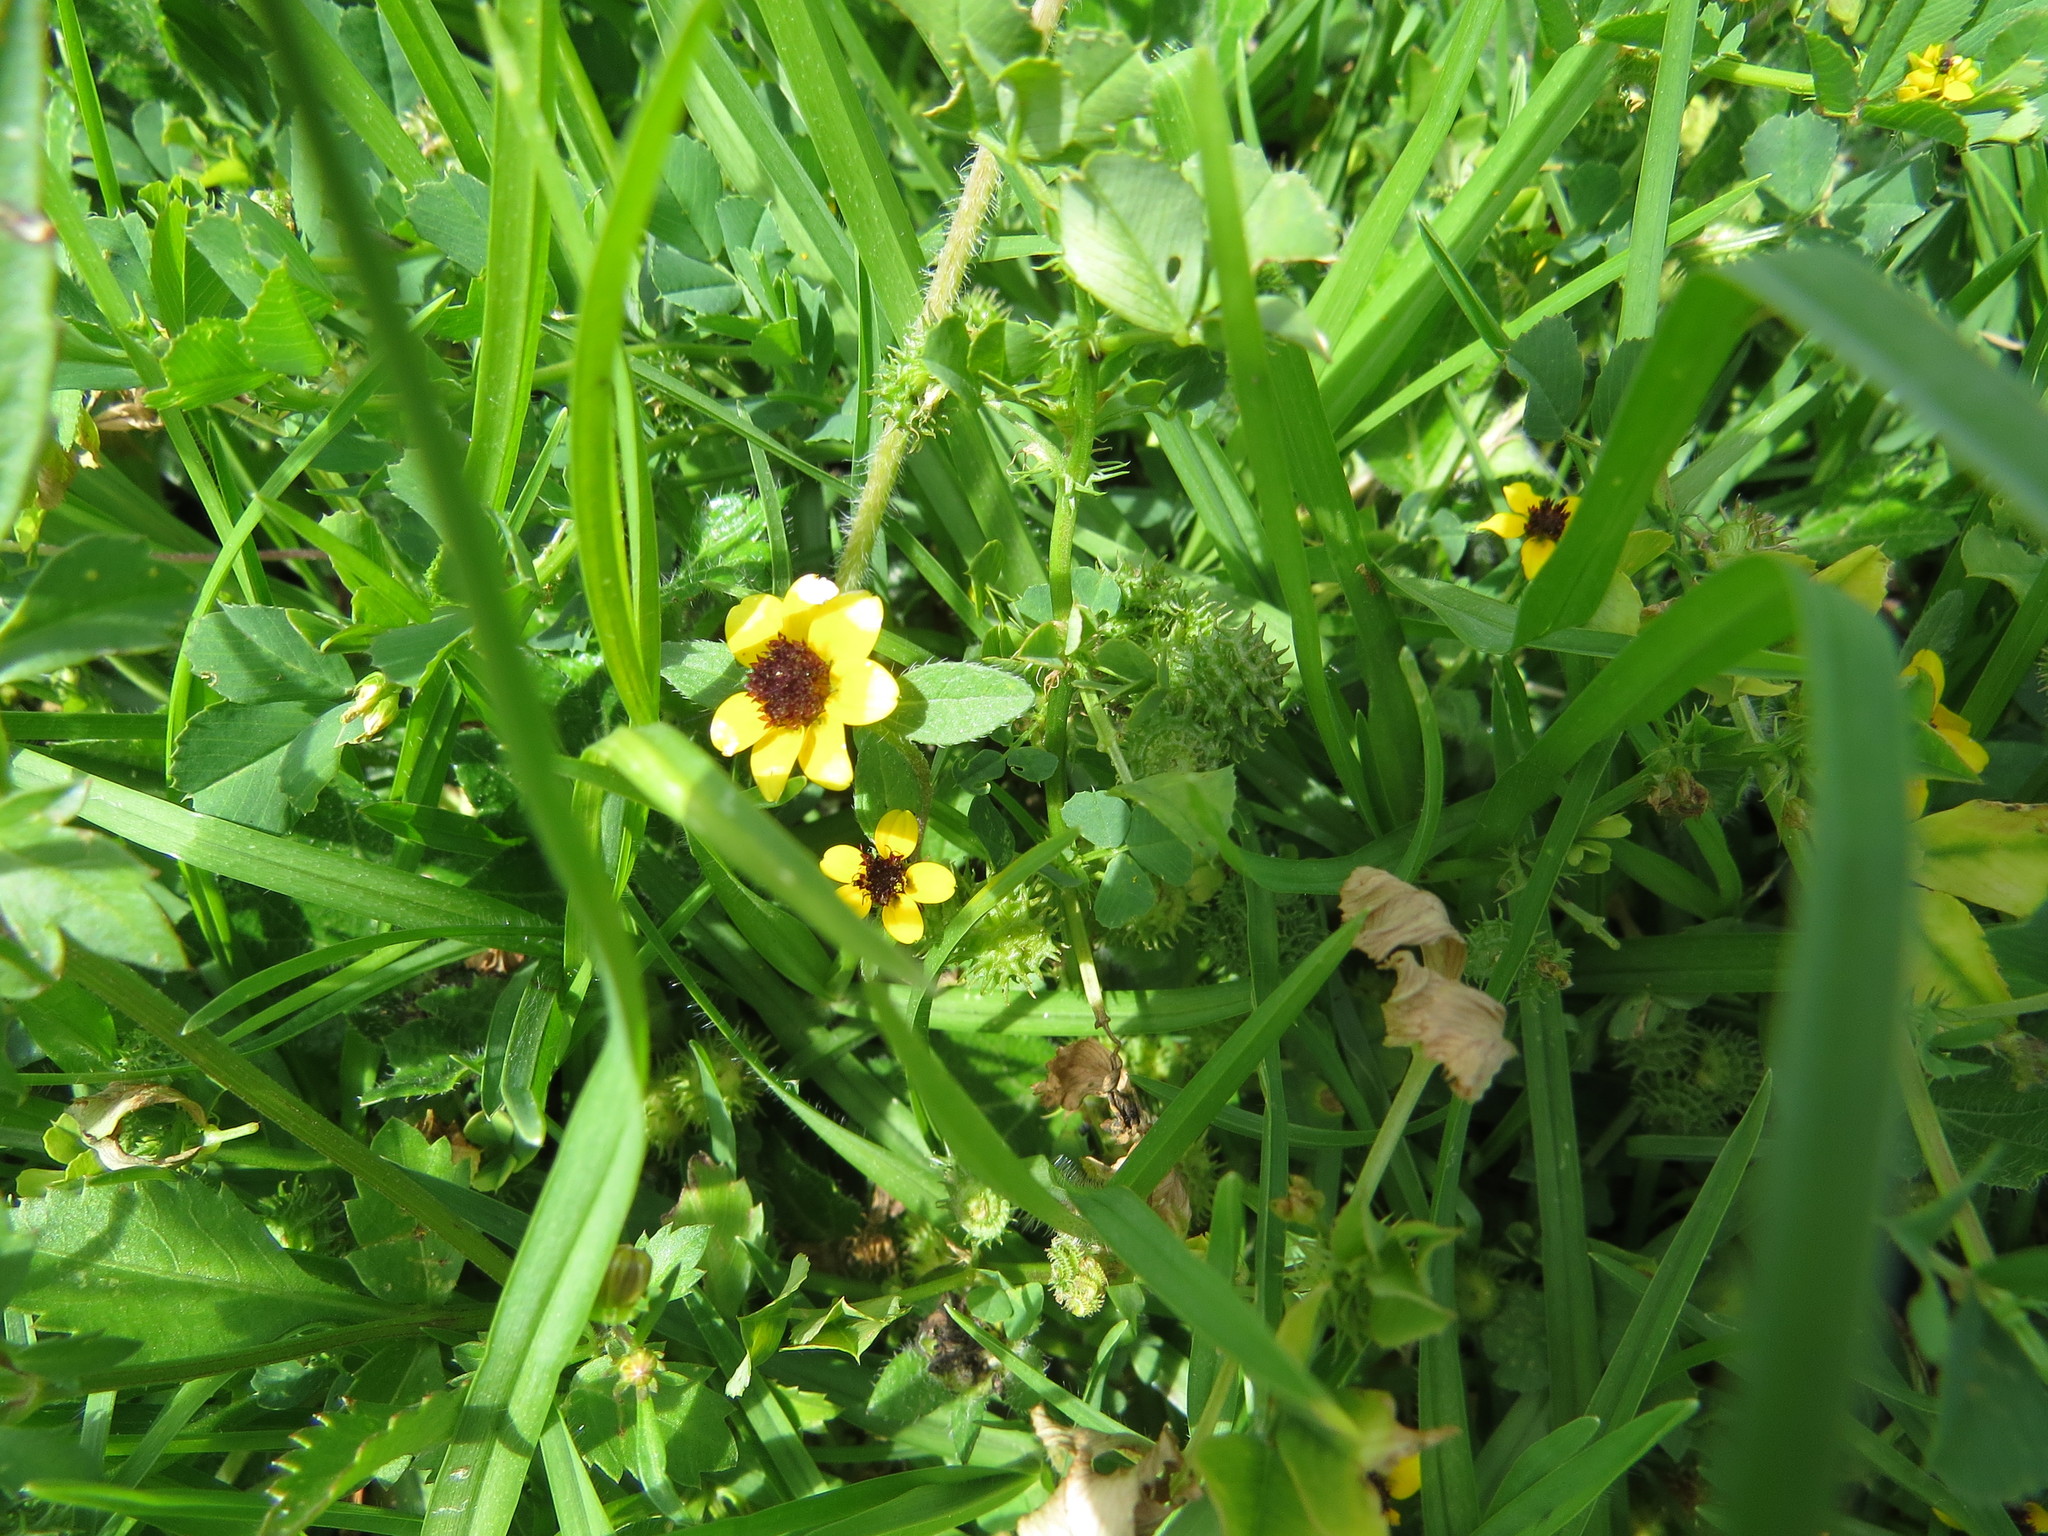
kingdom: Plantae
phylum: Tracheophyta
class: Magnoliopsida
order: Asterales
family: Asteraceae
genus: Sanvitalia
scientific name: Sanvitalia procumbens
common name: Mexican creeping zinnia
